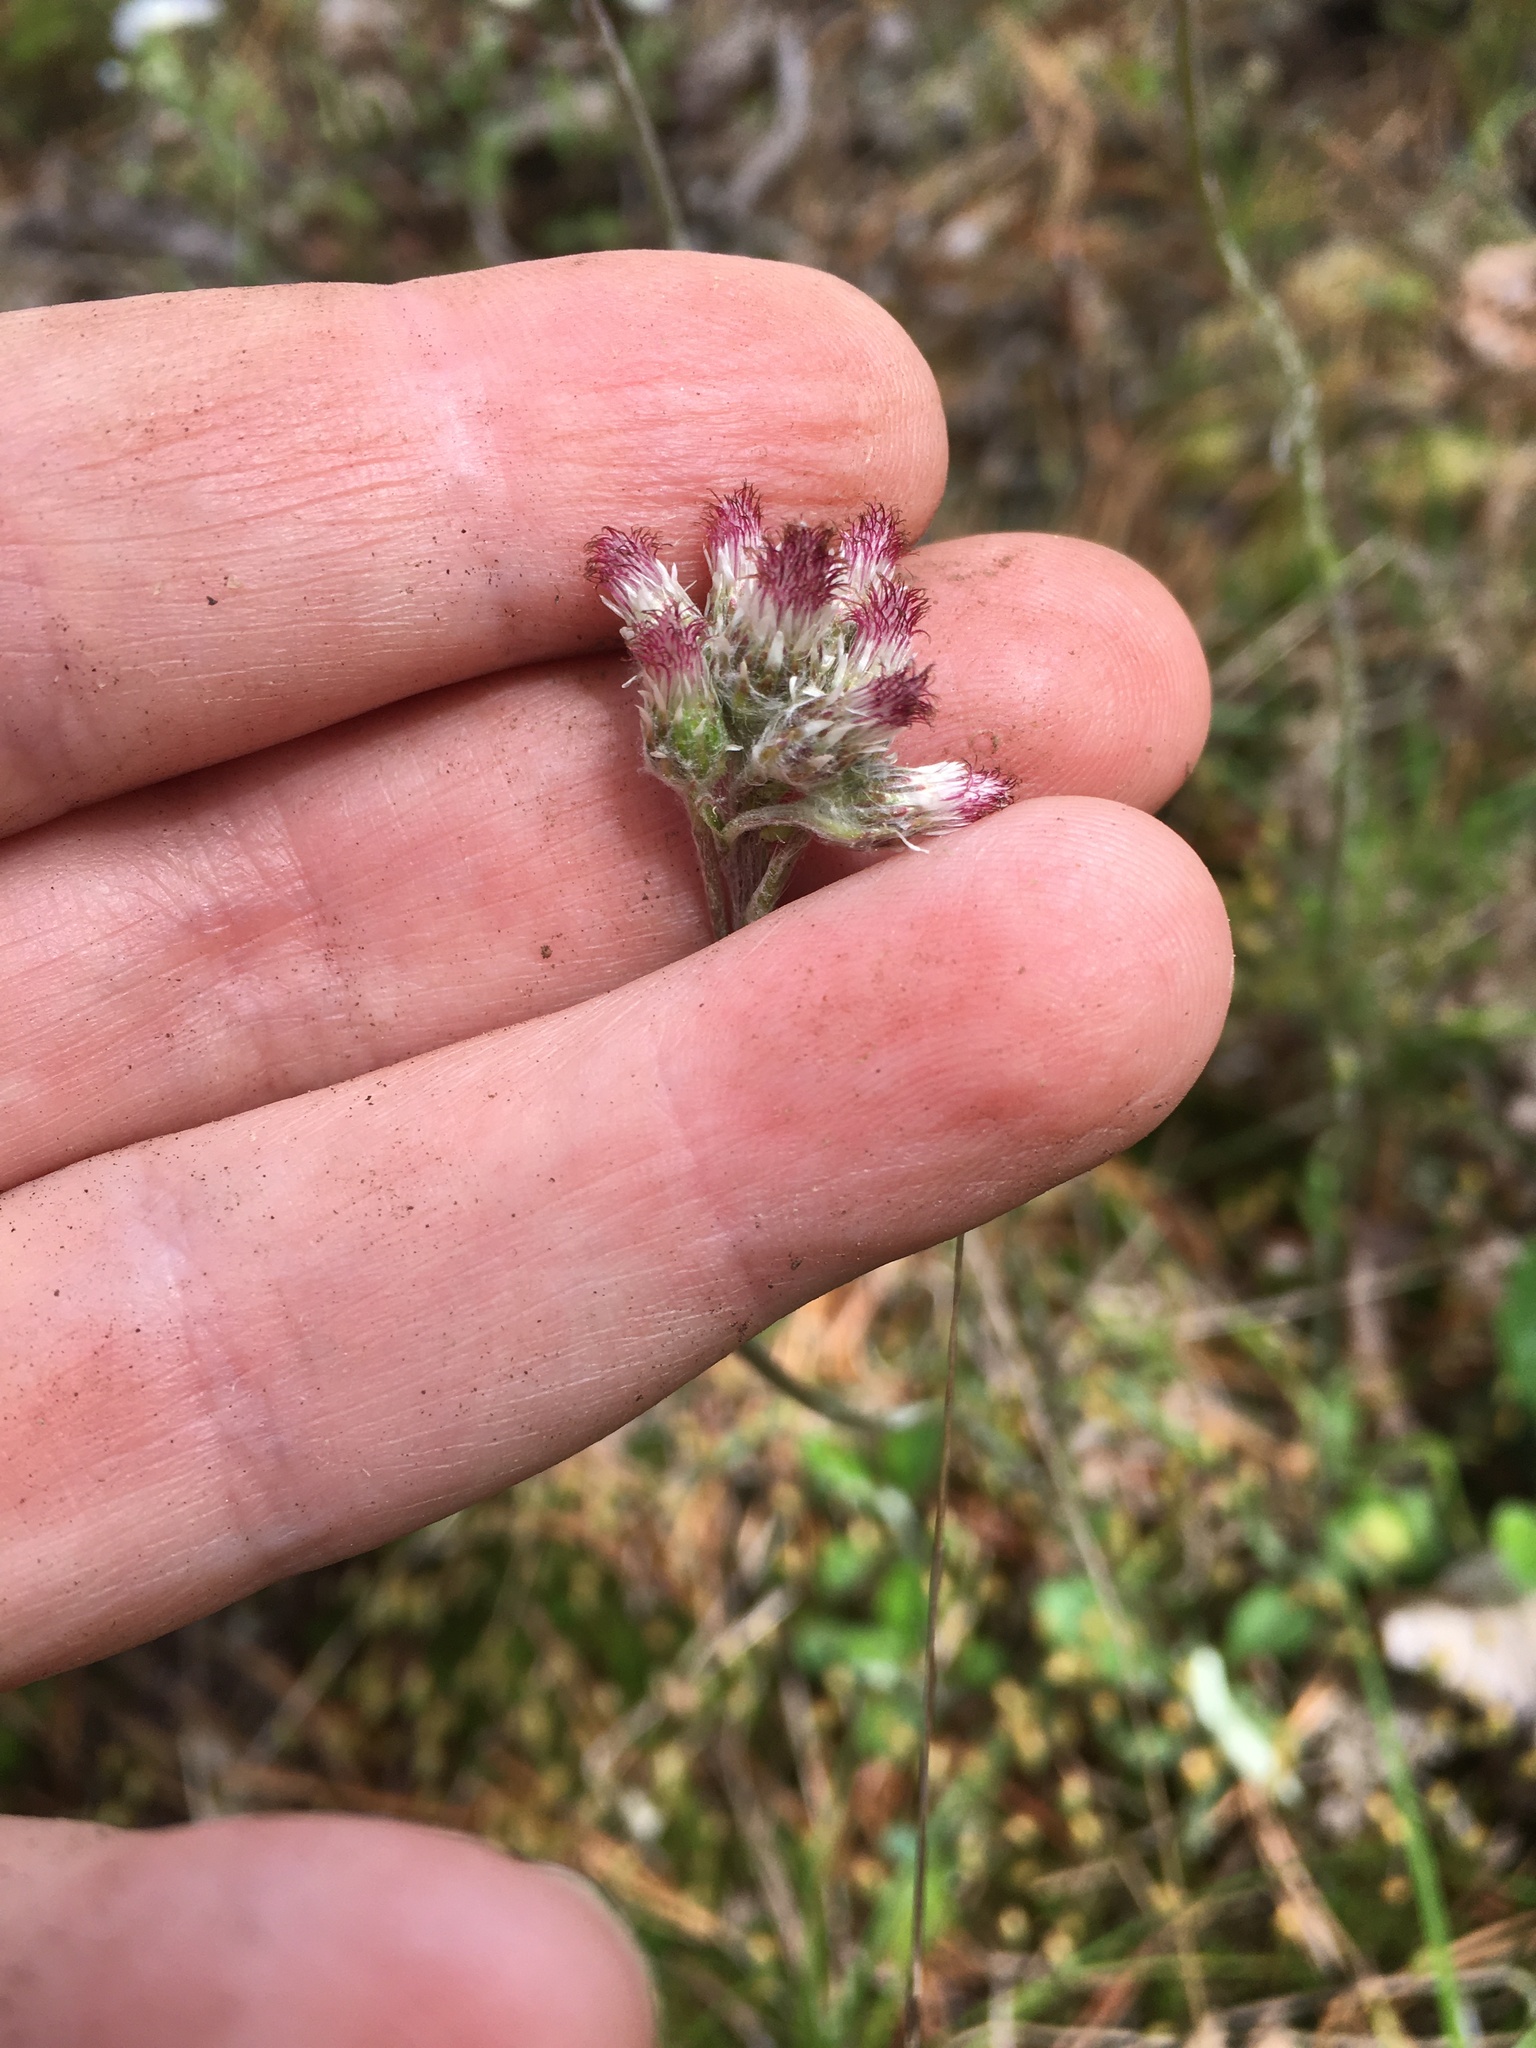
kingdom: Plantae
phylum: Tracheophyta
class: Magnoliopsida
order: Asterales
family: Asteraceae
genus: Antennaria
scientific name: Antennaria plantaginifolia
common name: Plantain-leaved pussytoes
